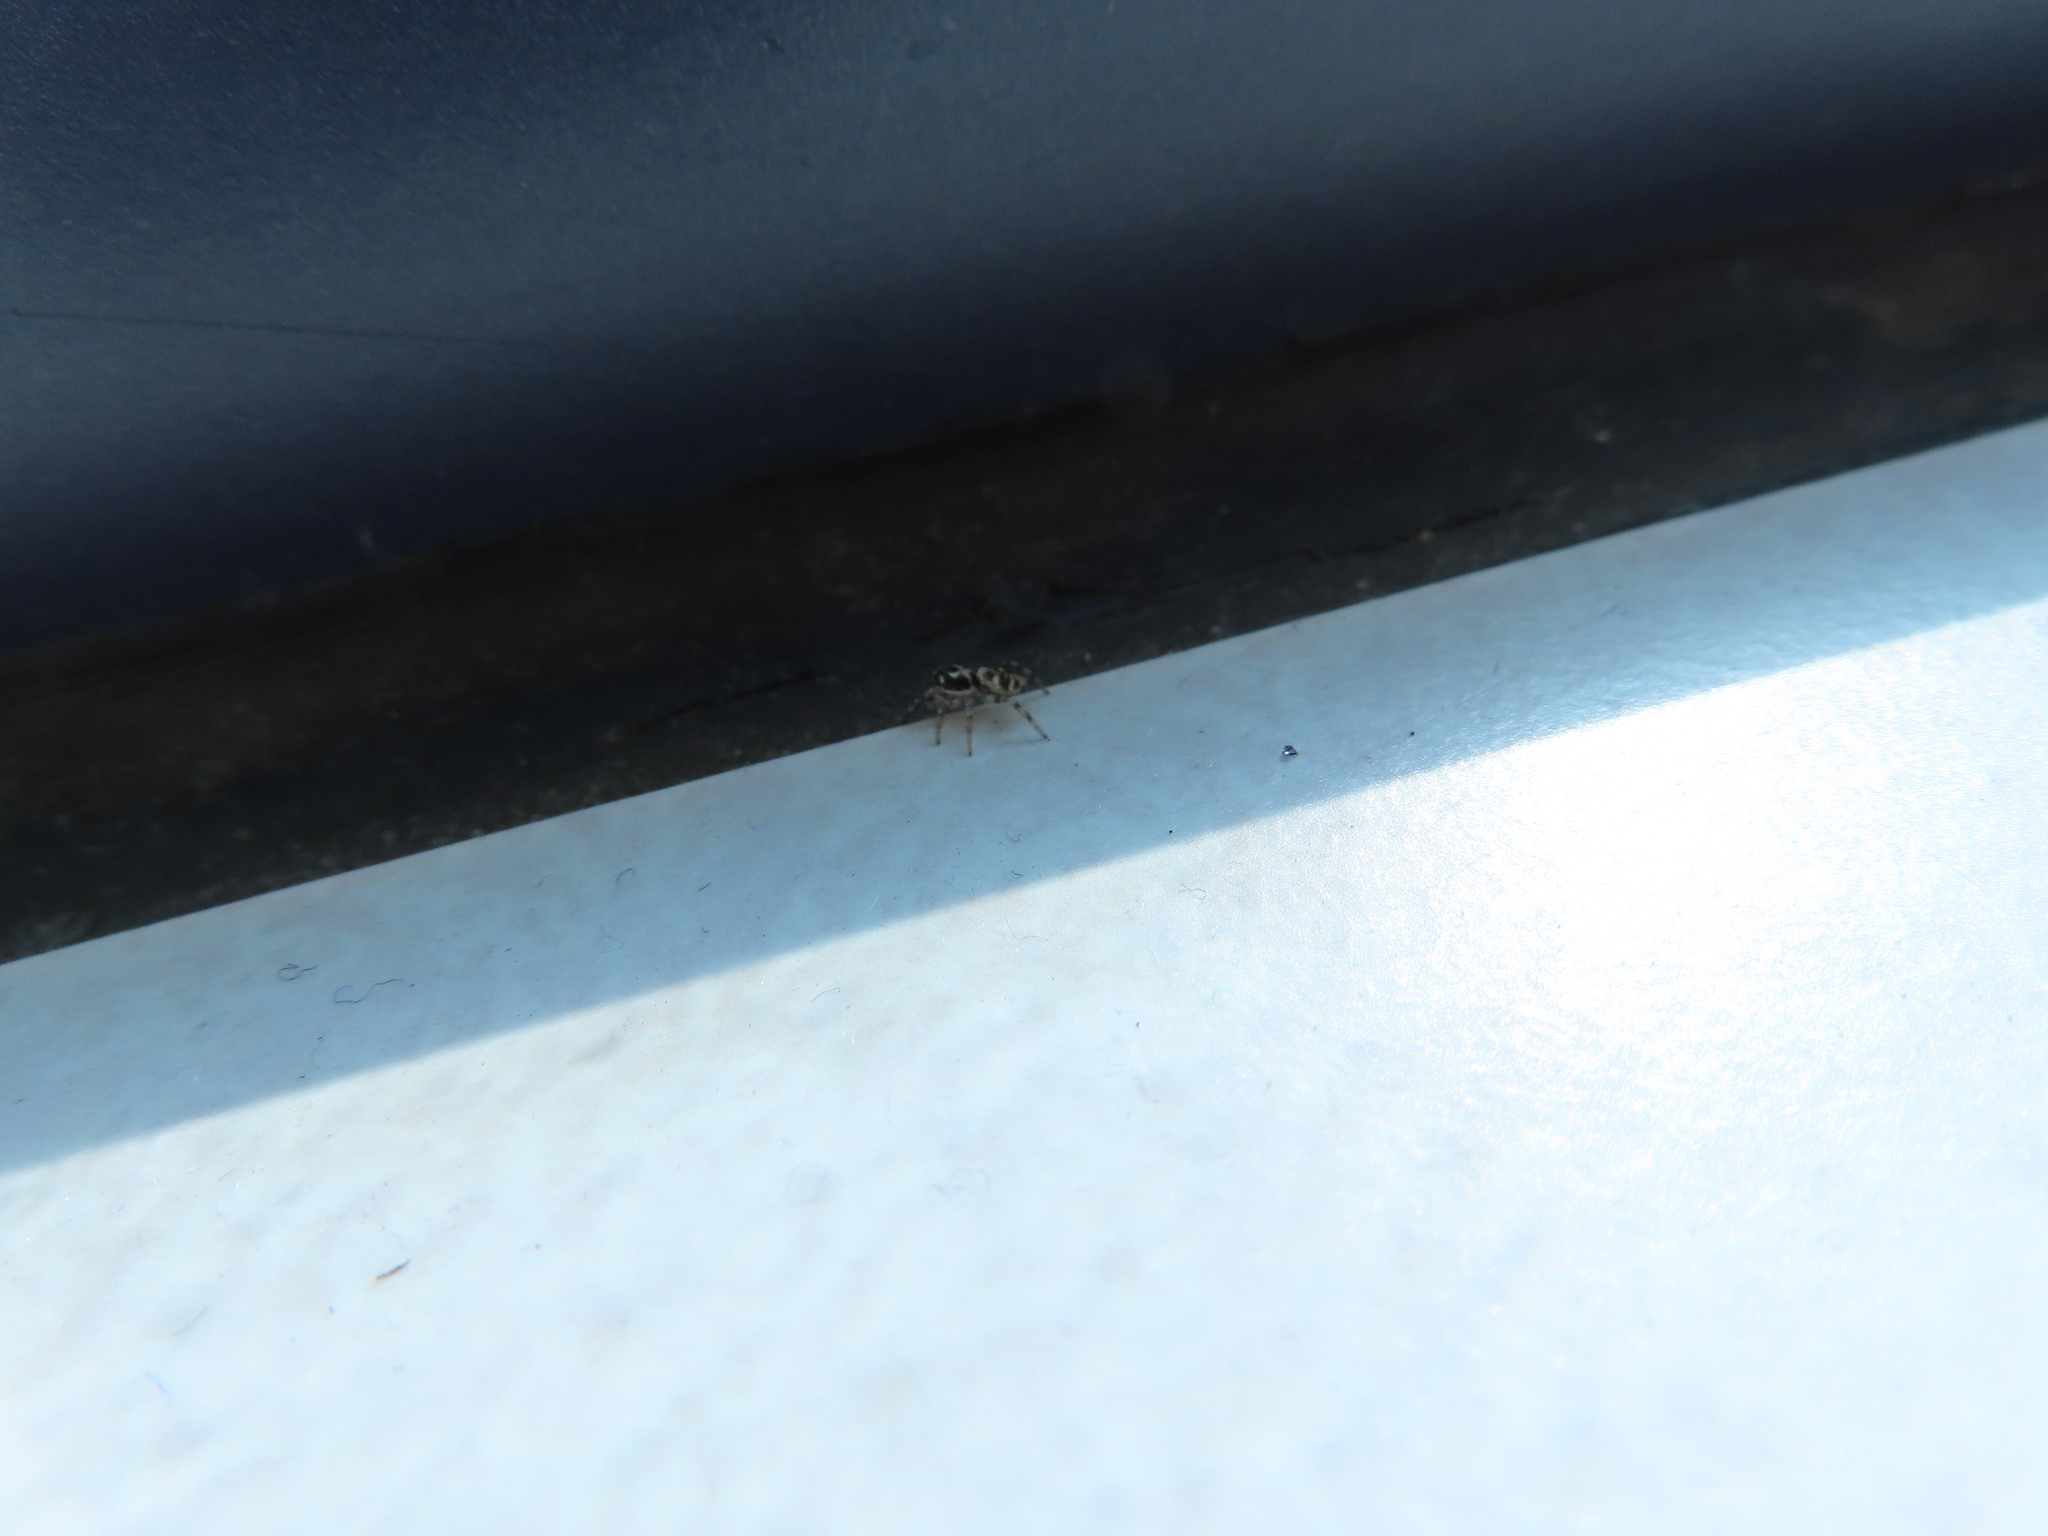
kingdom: Animalia
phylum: Arthropoda
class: Arachnida
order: Araneae
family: Salticidae
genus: Salticus
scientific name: Salticus scenicus
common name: Zebra jumper
